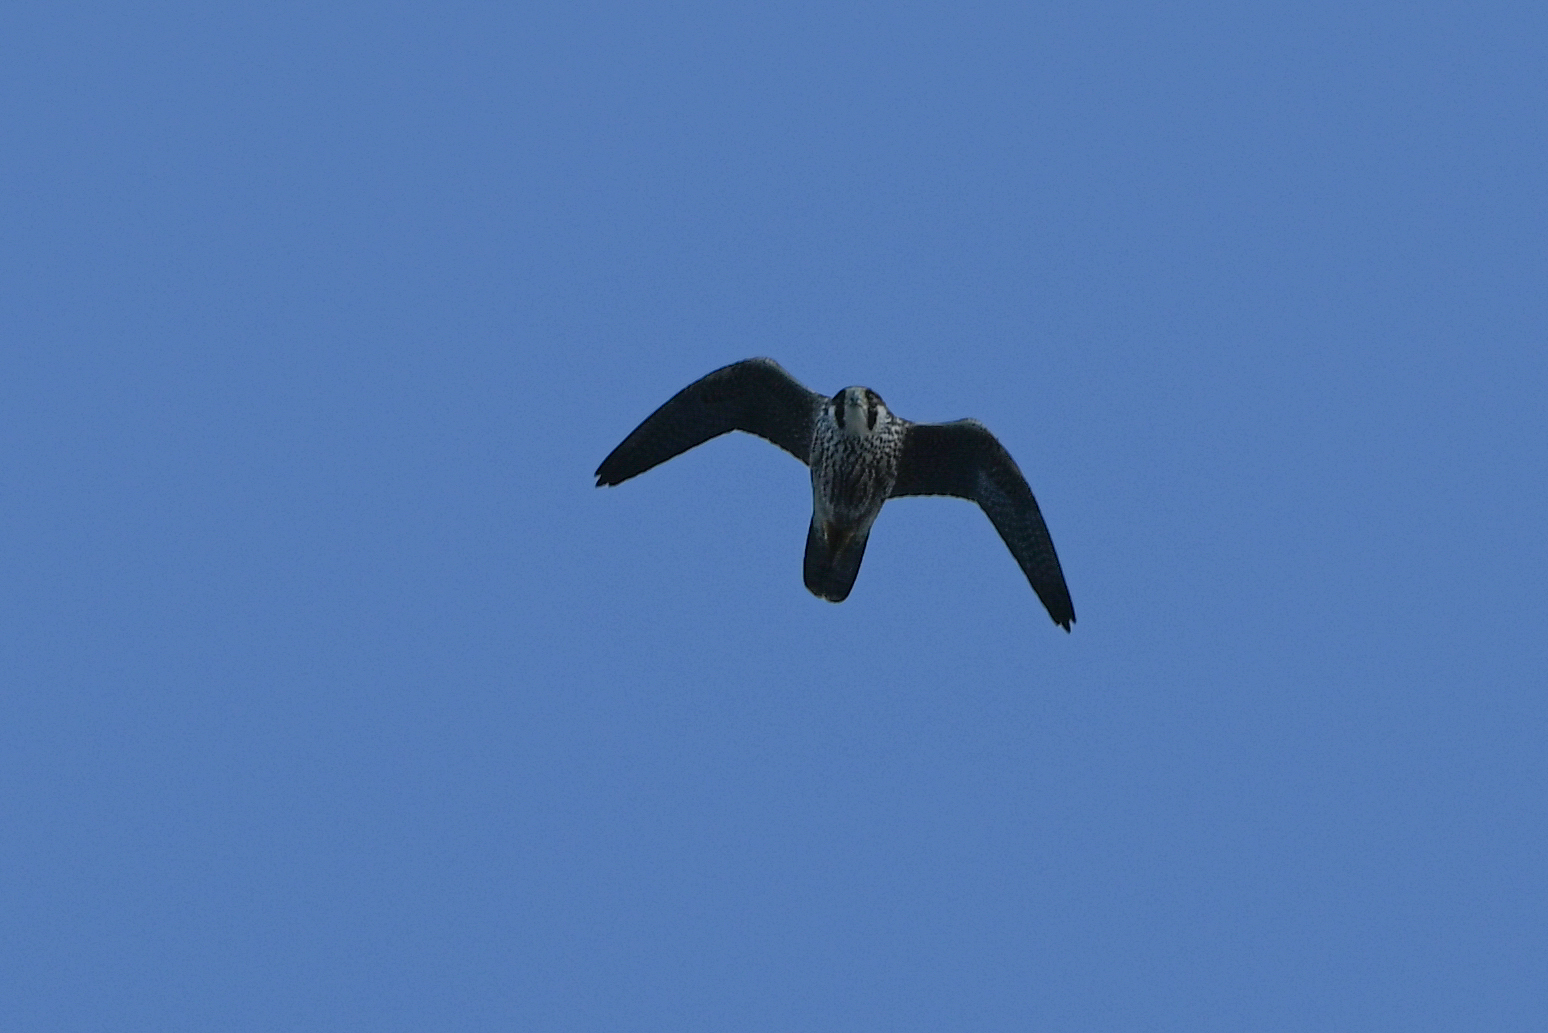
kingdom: Animalia
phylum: Chordata
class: Aves
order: Falconiformes
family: Falconidae
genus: Falco
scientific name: Falco peregrinus
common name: Peregrine falcon
